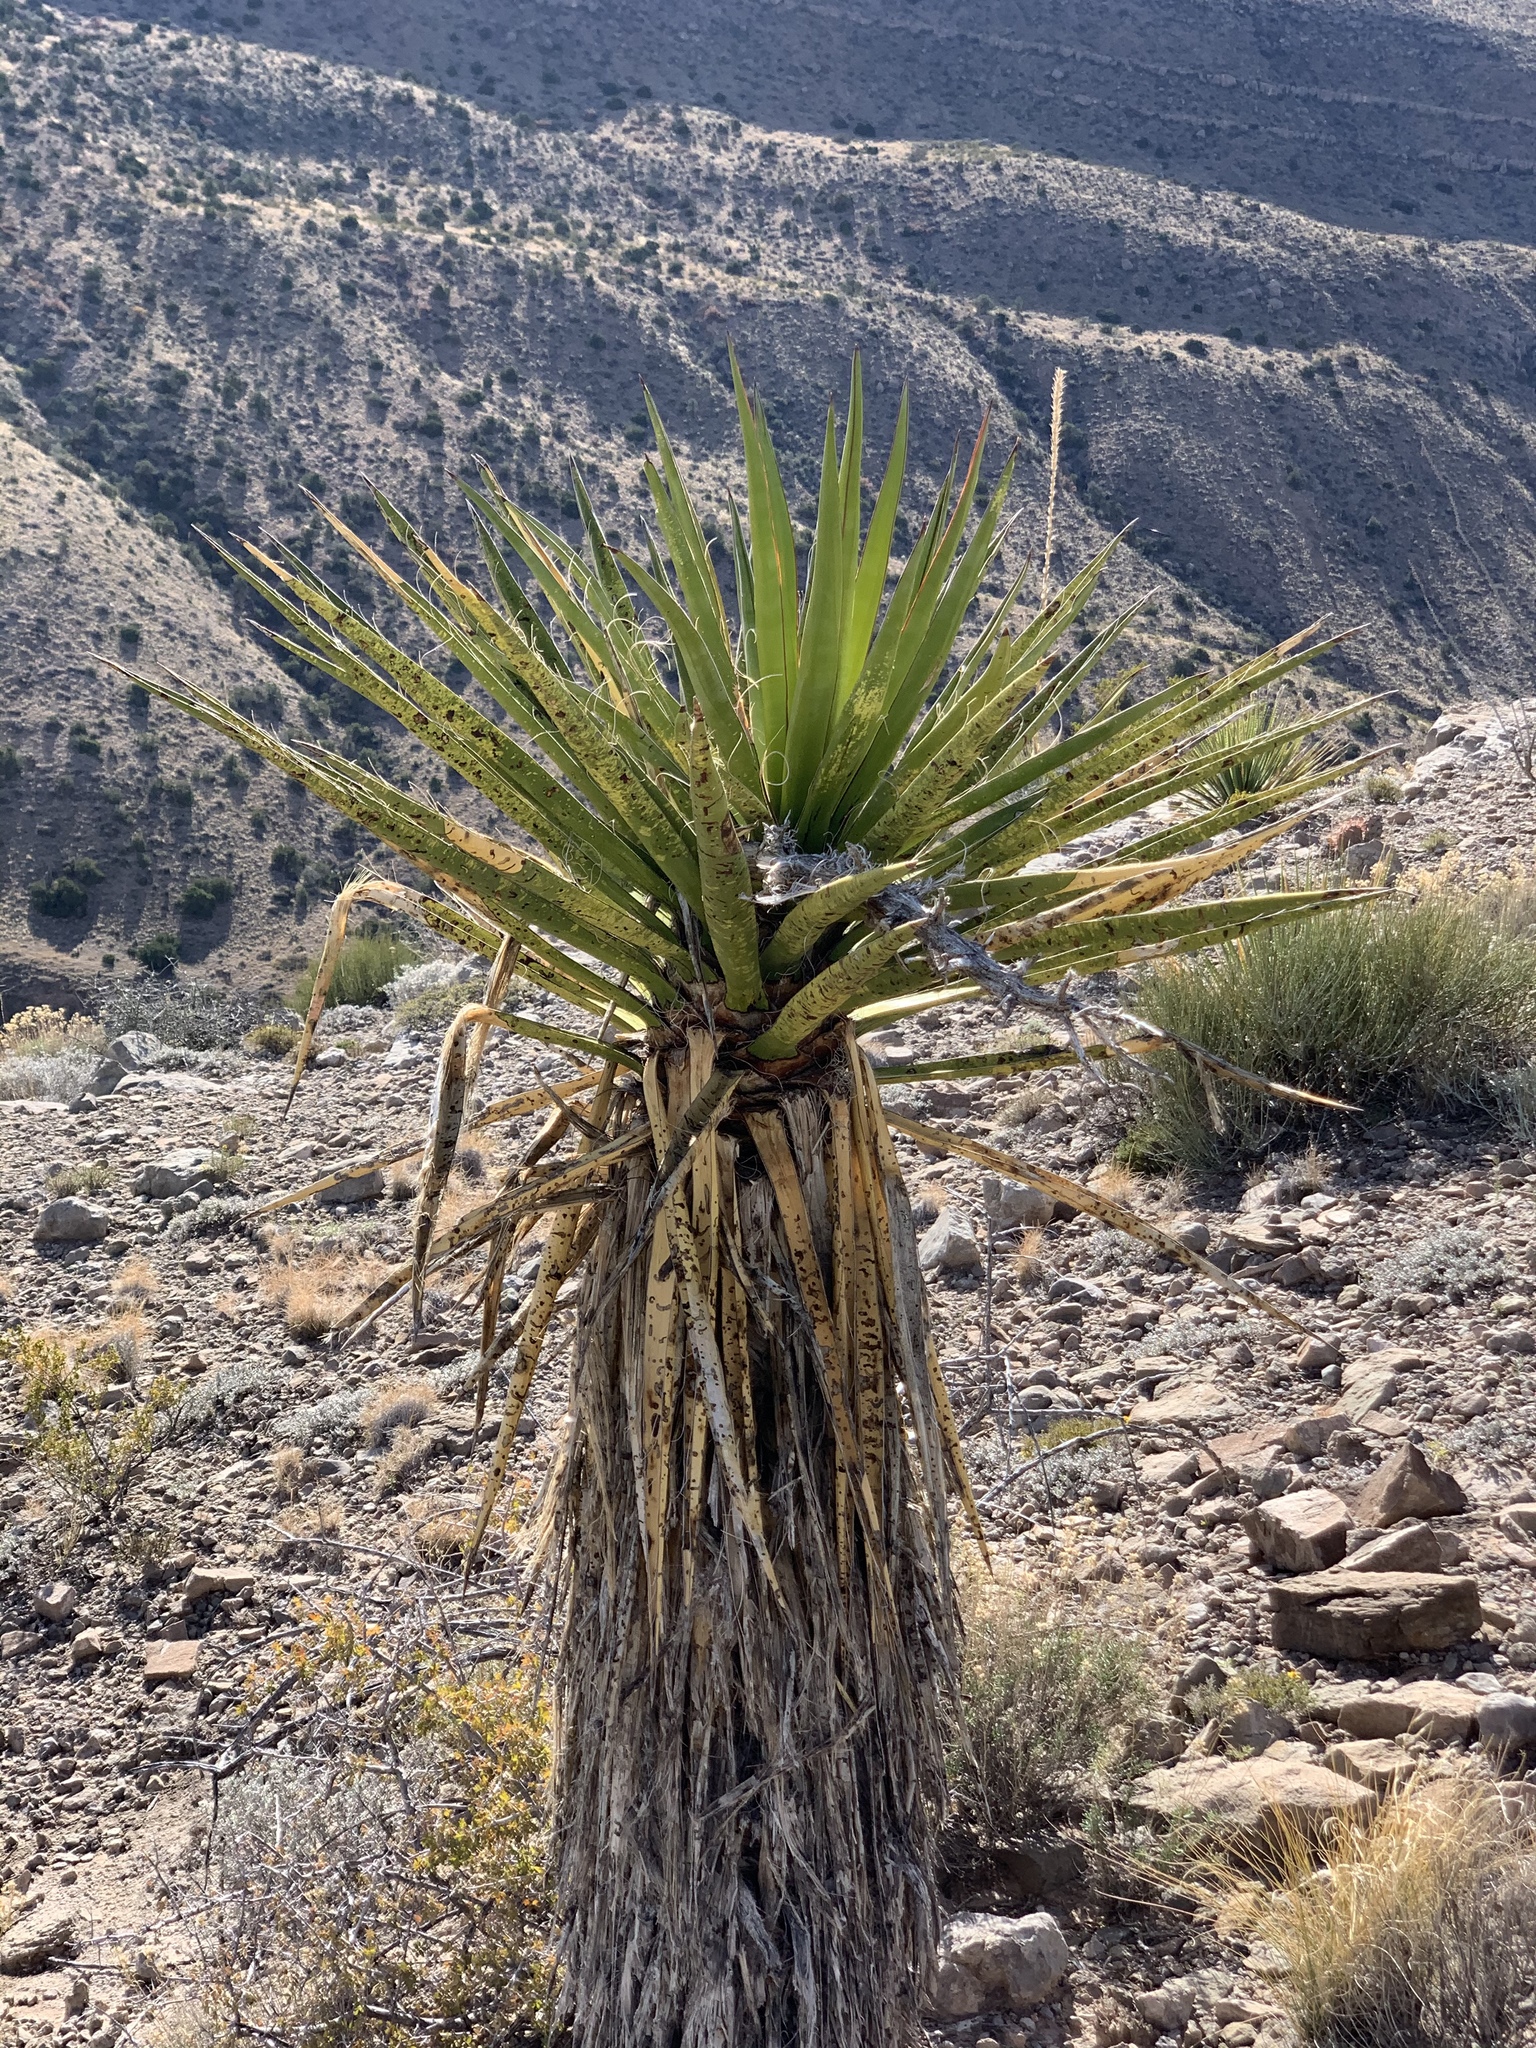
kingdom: Plantae
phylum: Tracheophyta
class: Liliopsida
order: Asparagales
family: Asparagaceae
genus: Yucca
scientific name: Yucca treculiana
